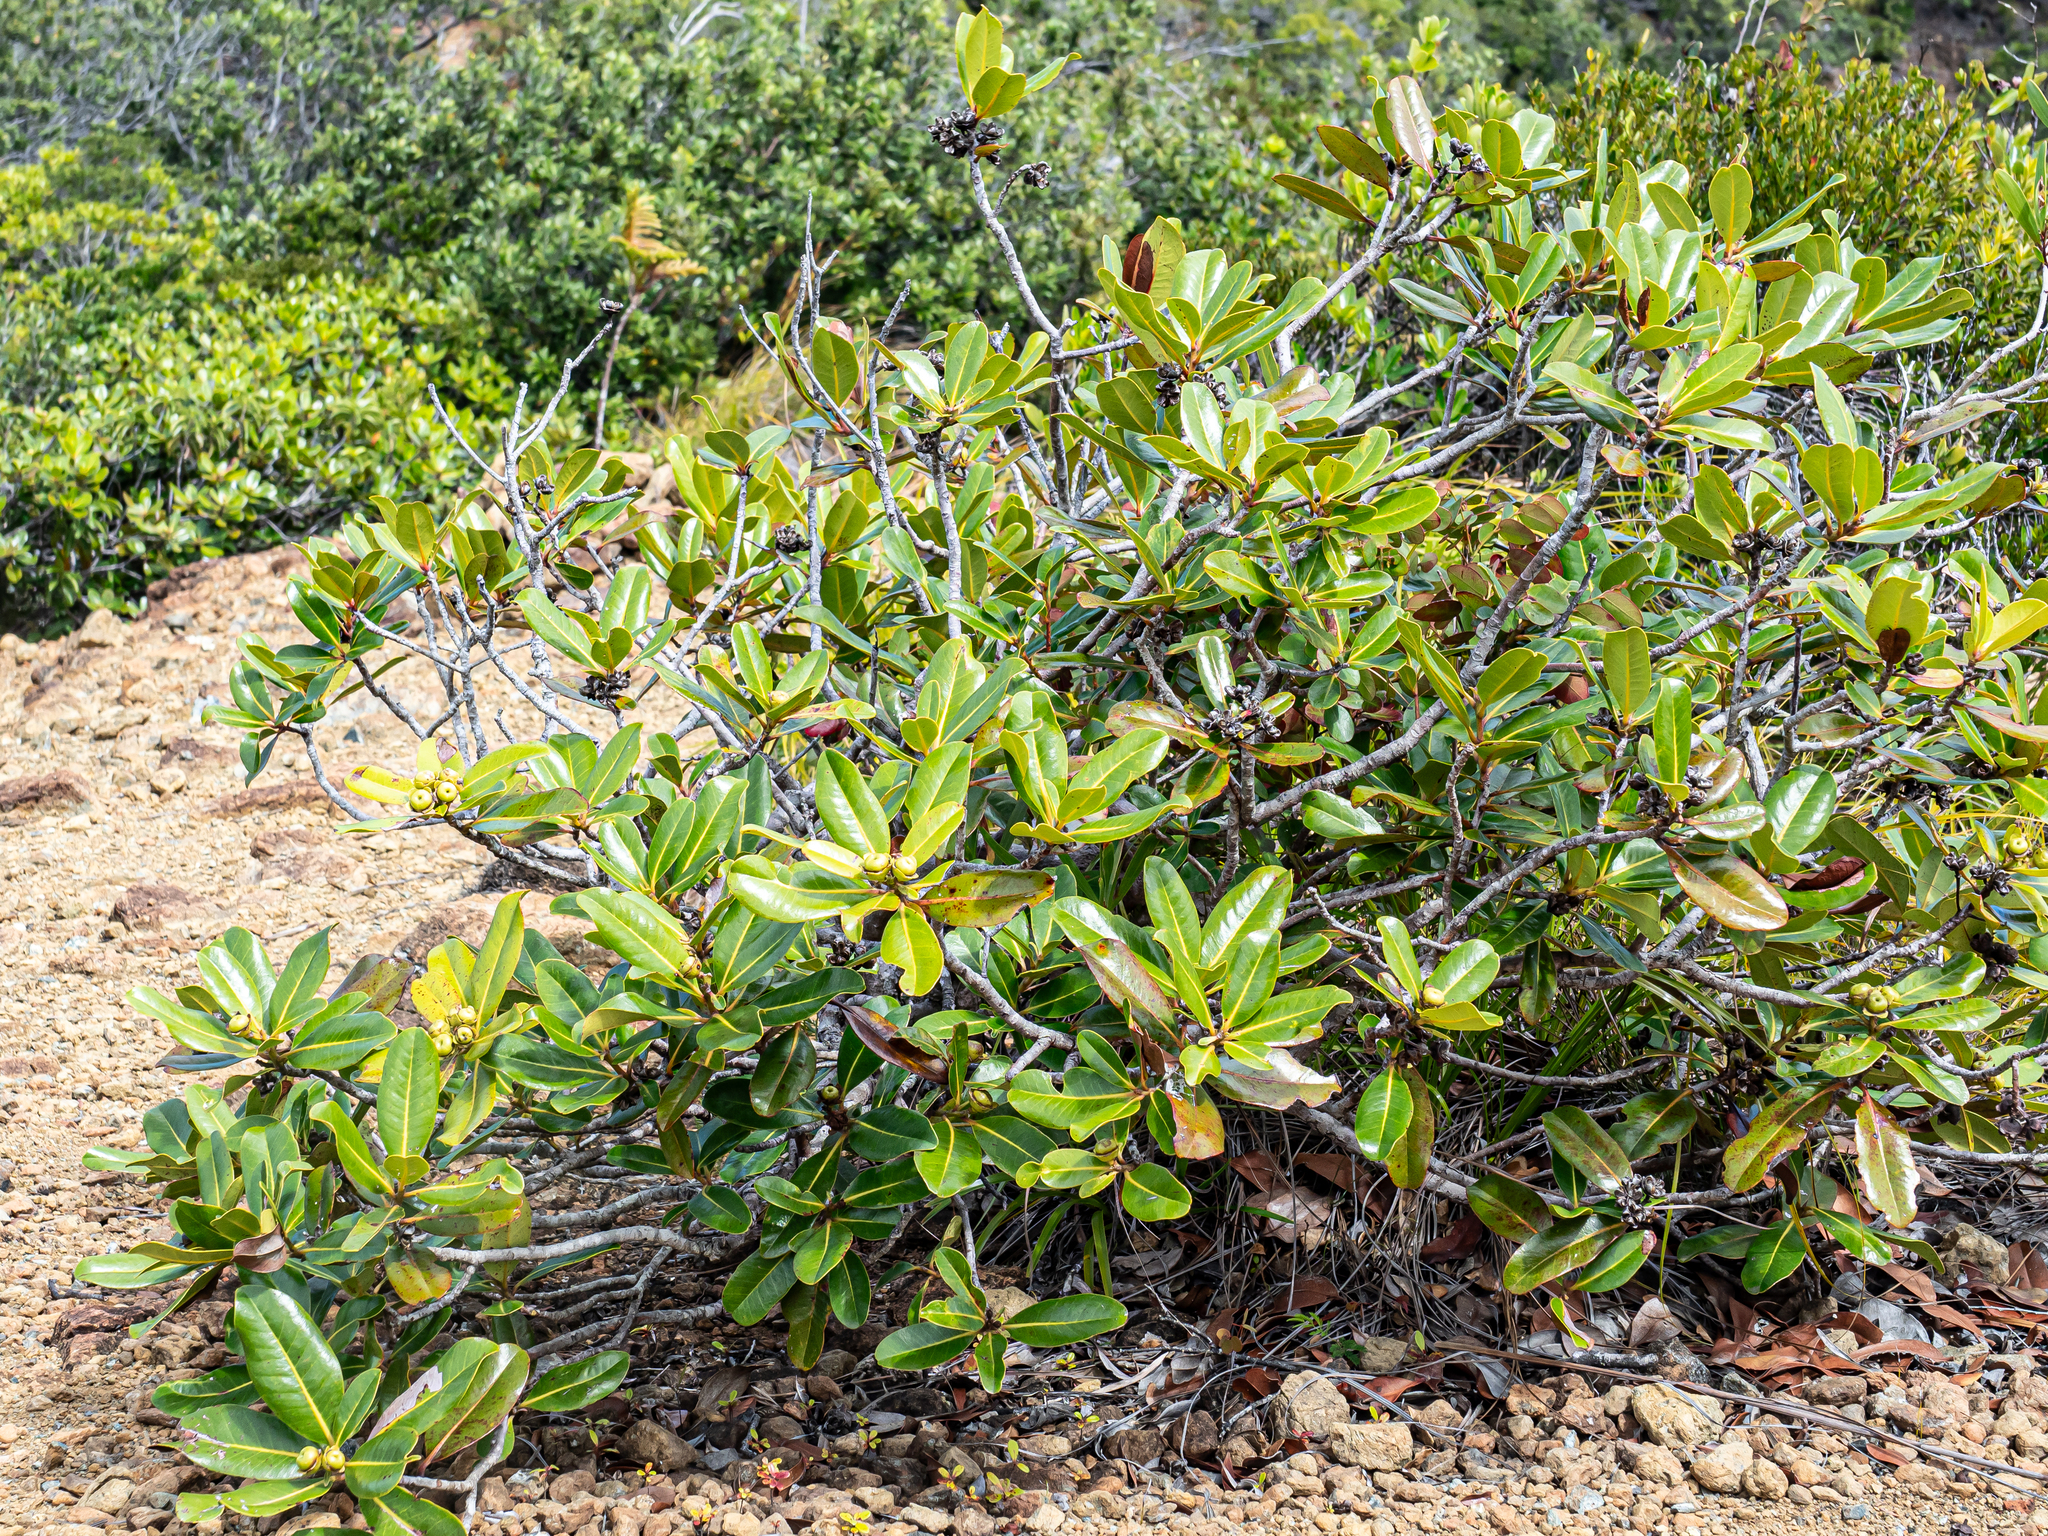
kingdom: Plantae
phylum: Tracheophyta
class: Magnoliopsida
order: Myrtales
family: Myrtaceae
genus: Xanthostemon
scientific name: Xanthostemon multiflorus
